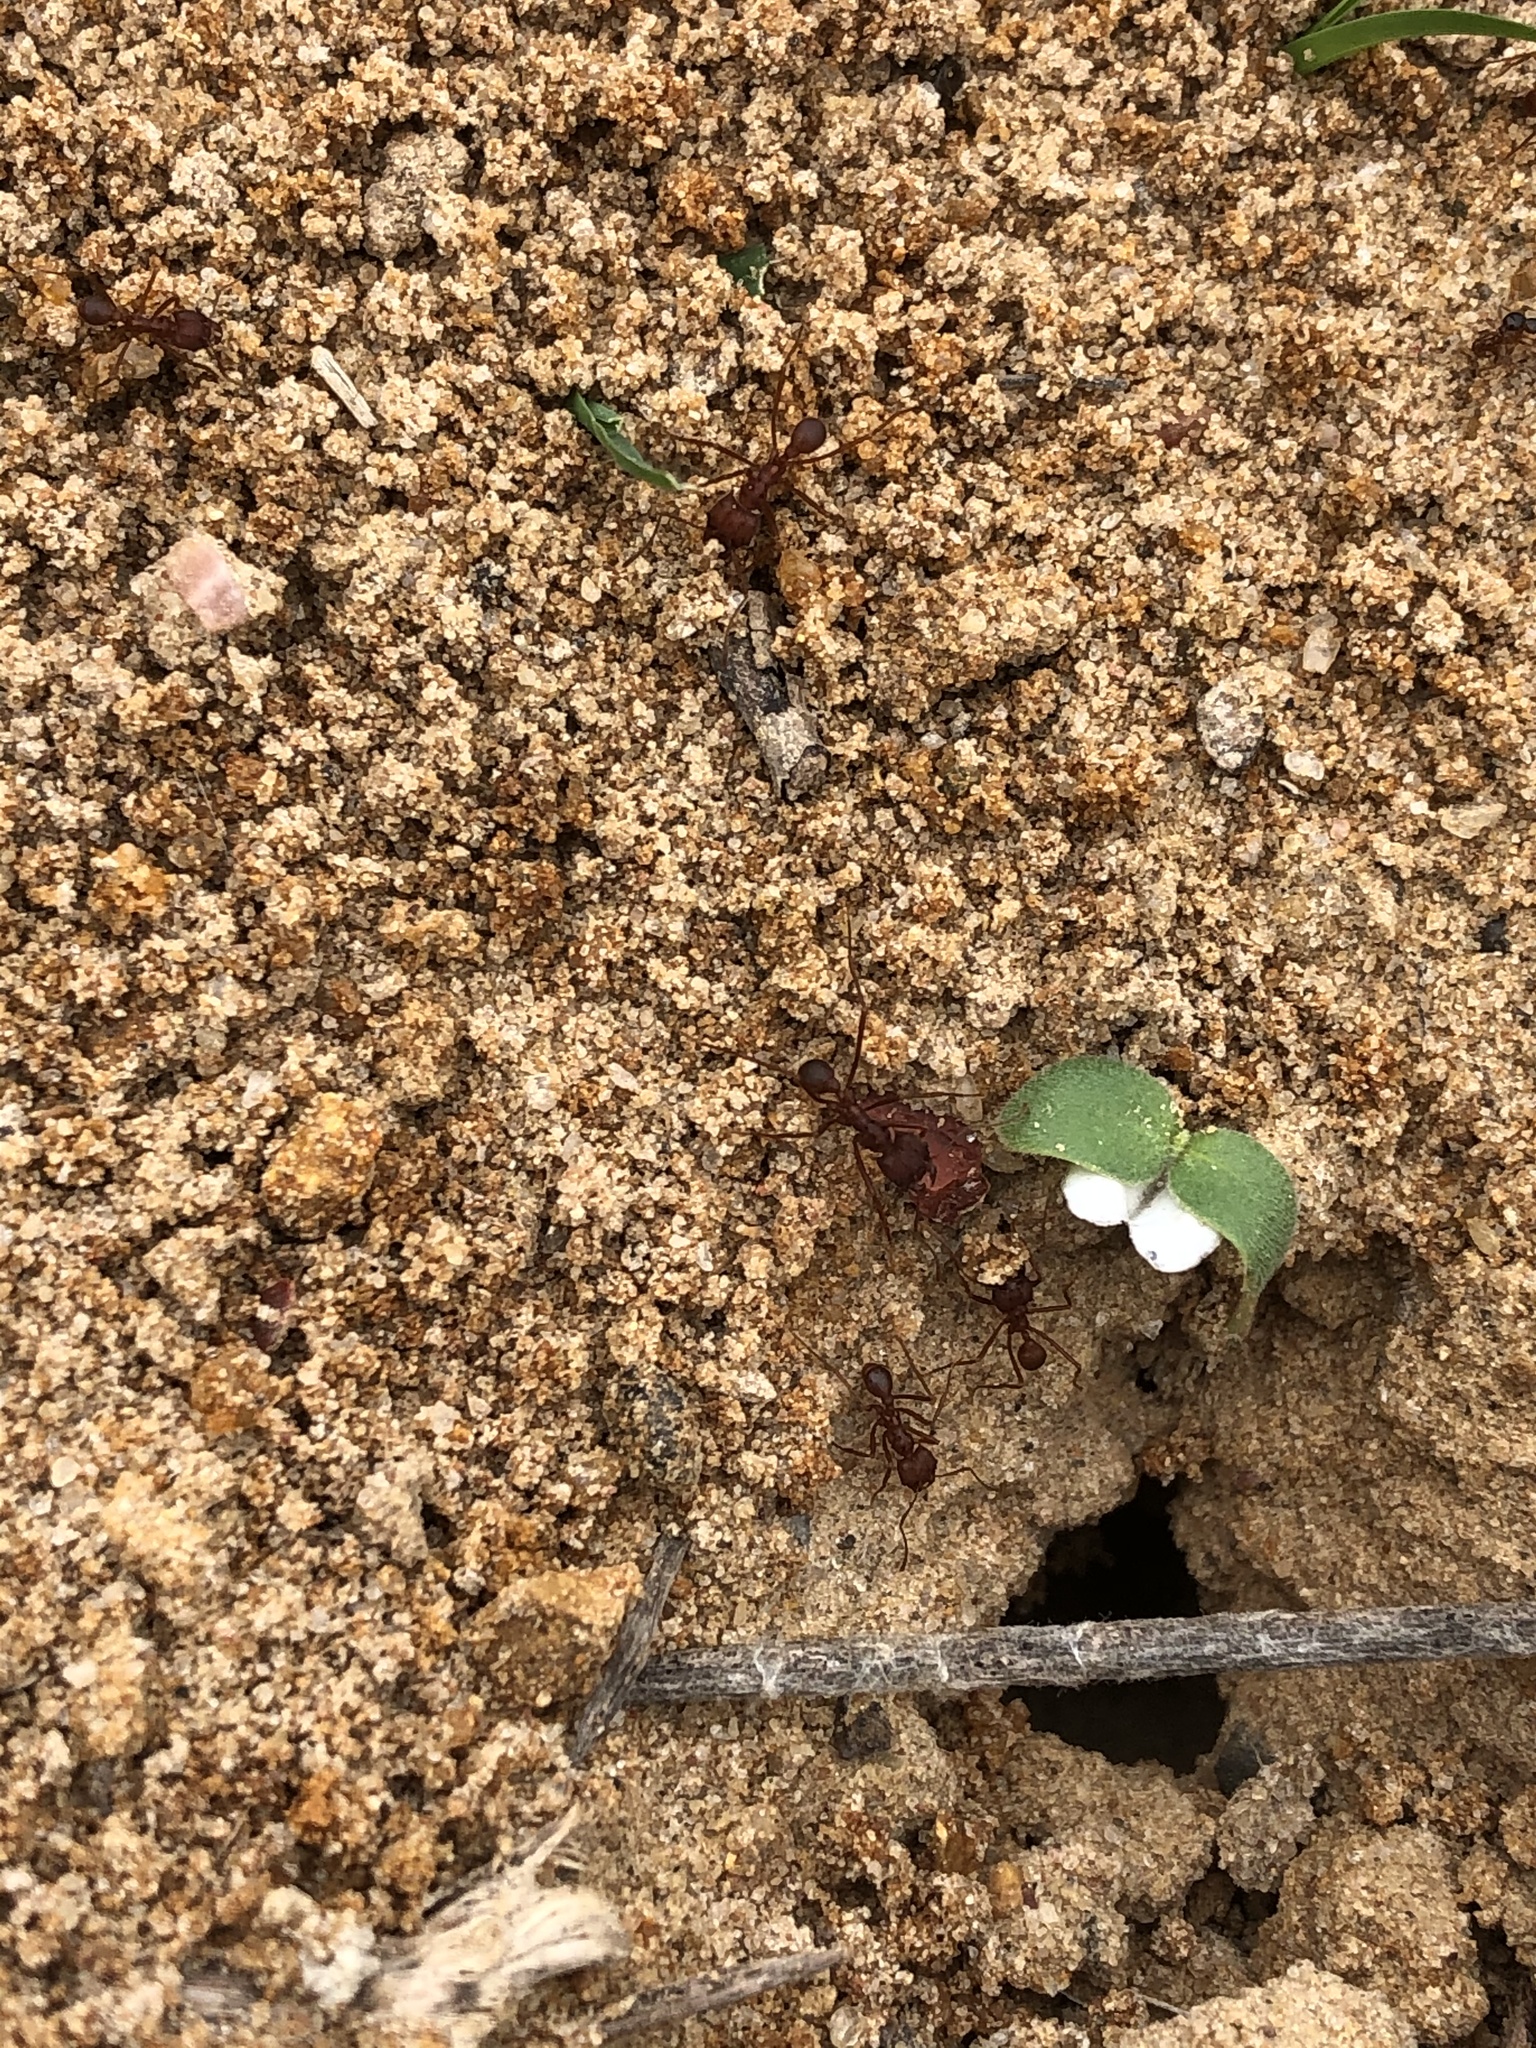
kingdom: Animalia
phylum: Arthropoda
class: Insecta
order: Hymenoptera
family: Formicidae
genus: Atta
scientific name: Atta texana
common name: Texas leafcutting ant
